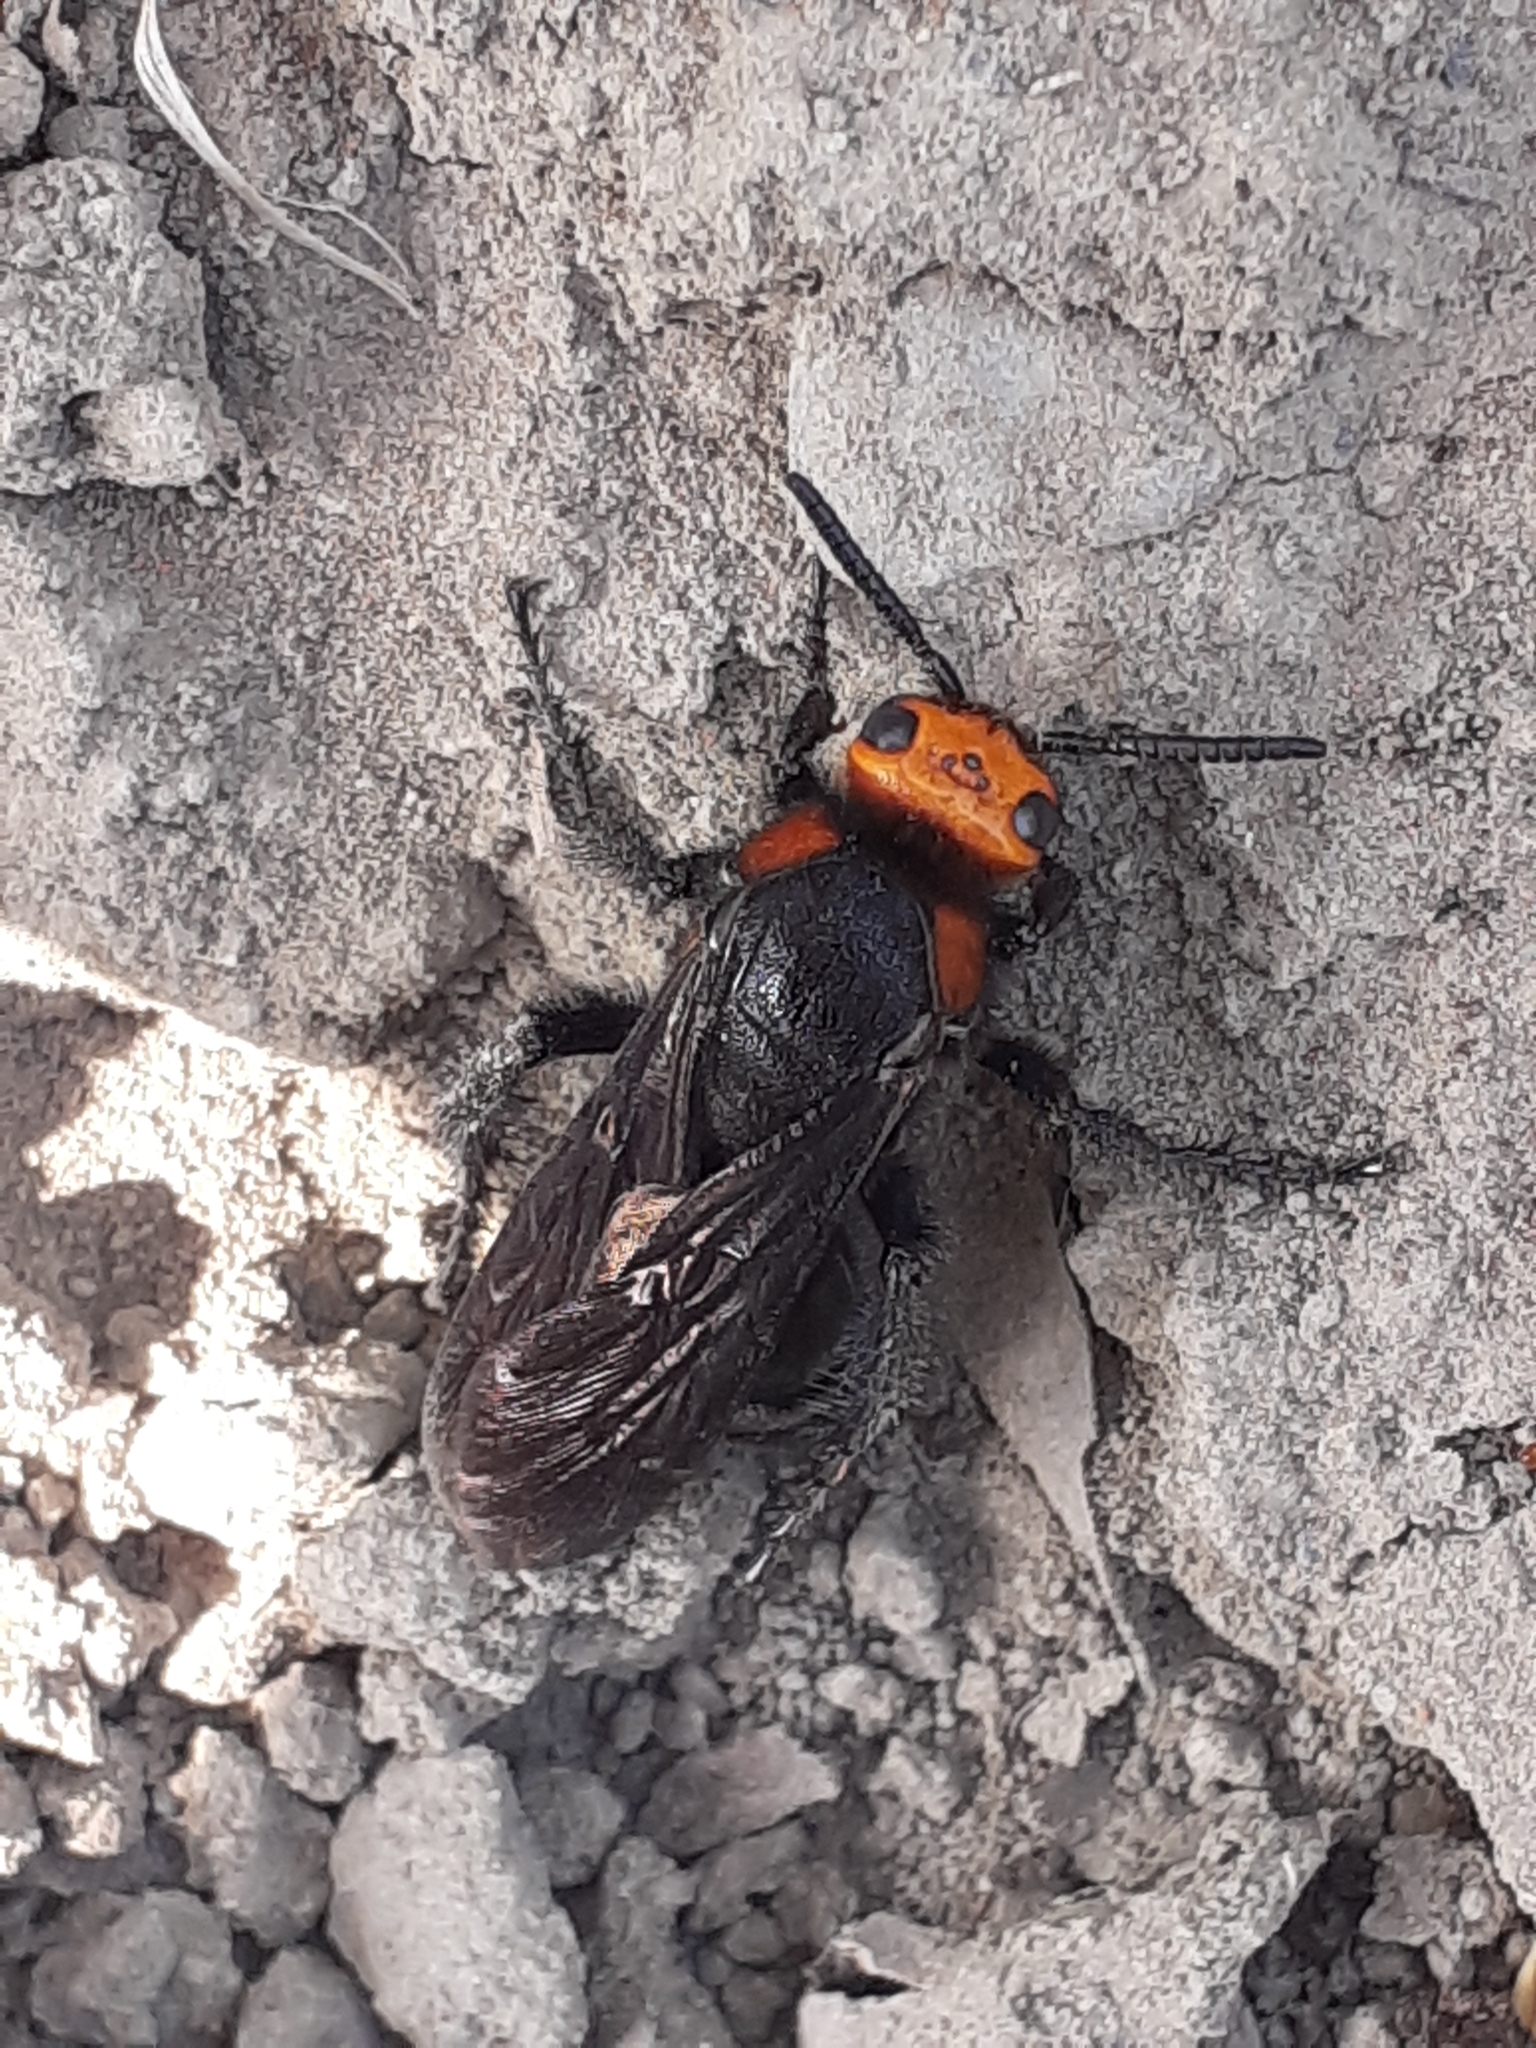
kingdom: Animalia
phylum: Arthropoda
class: Insecta
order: Hymenoptera
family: Scoliidae
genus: Scolia
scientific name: Scolia clypeata
